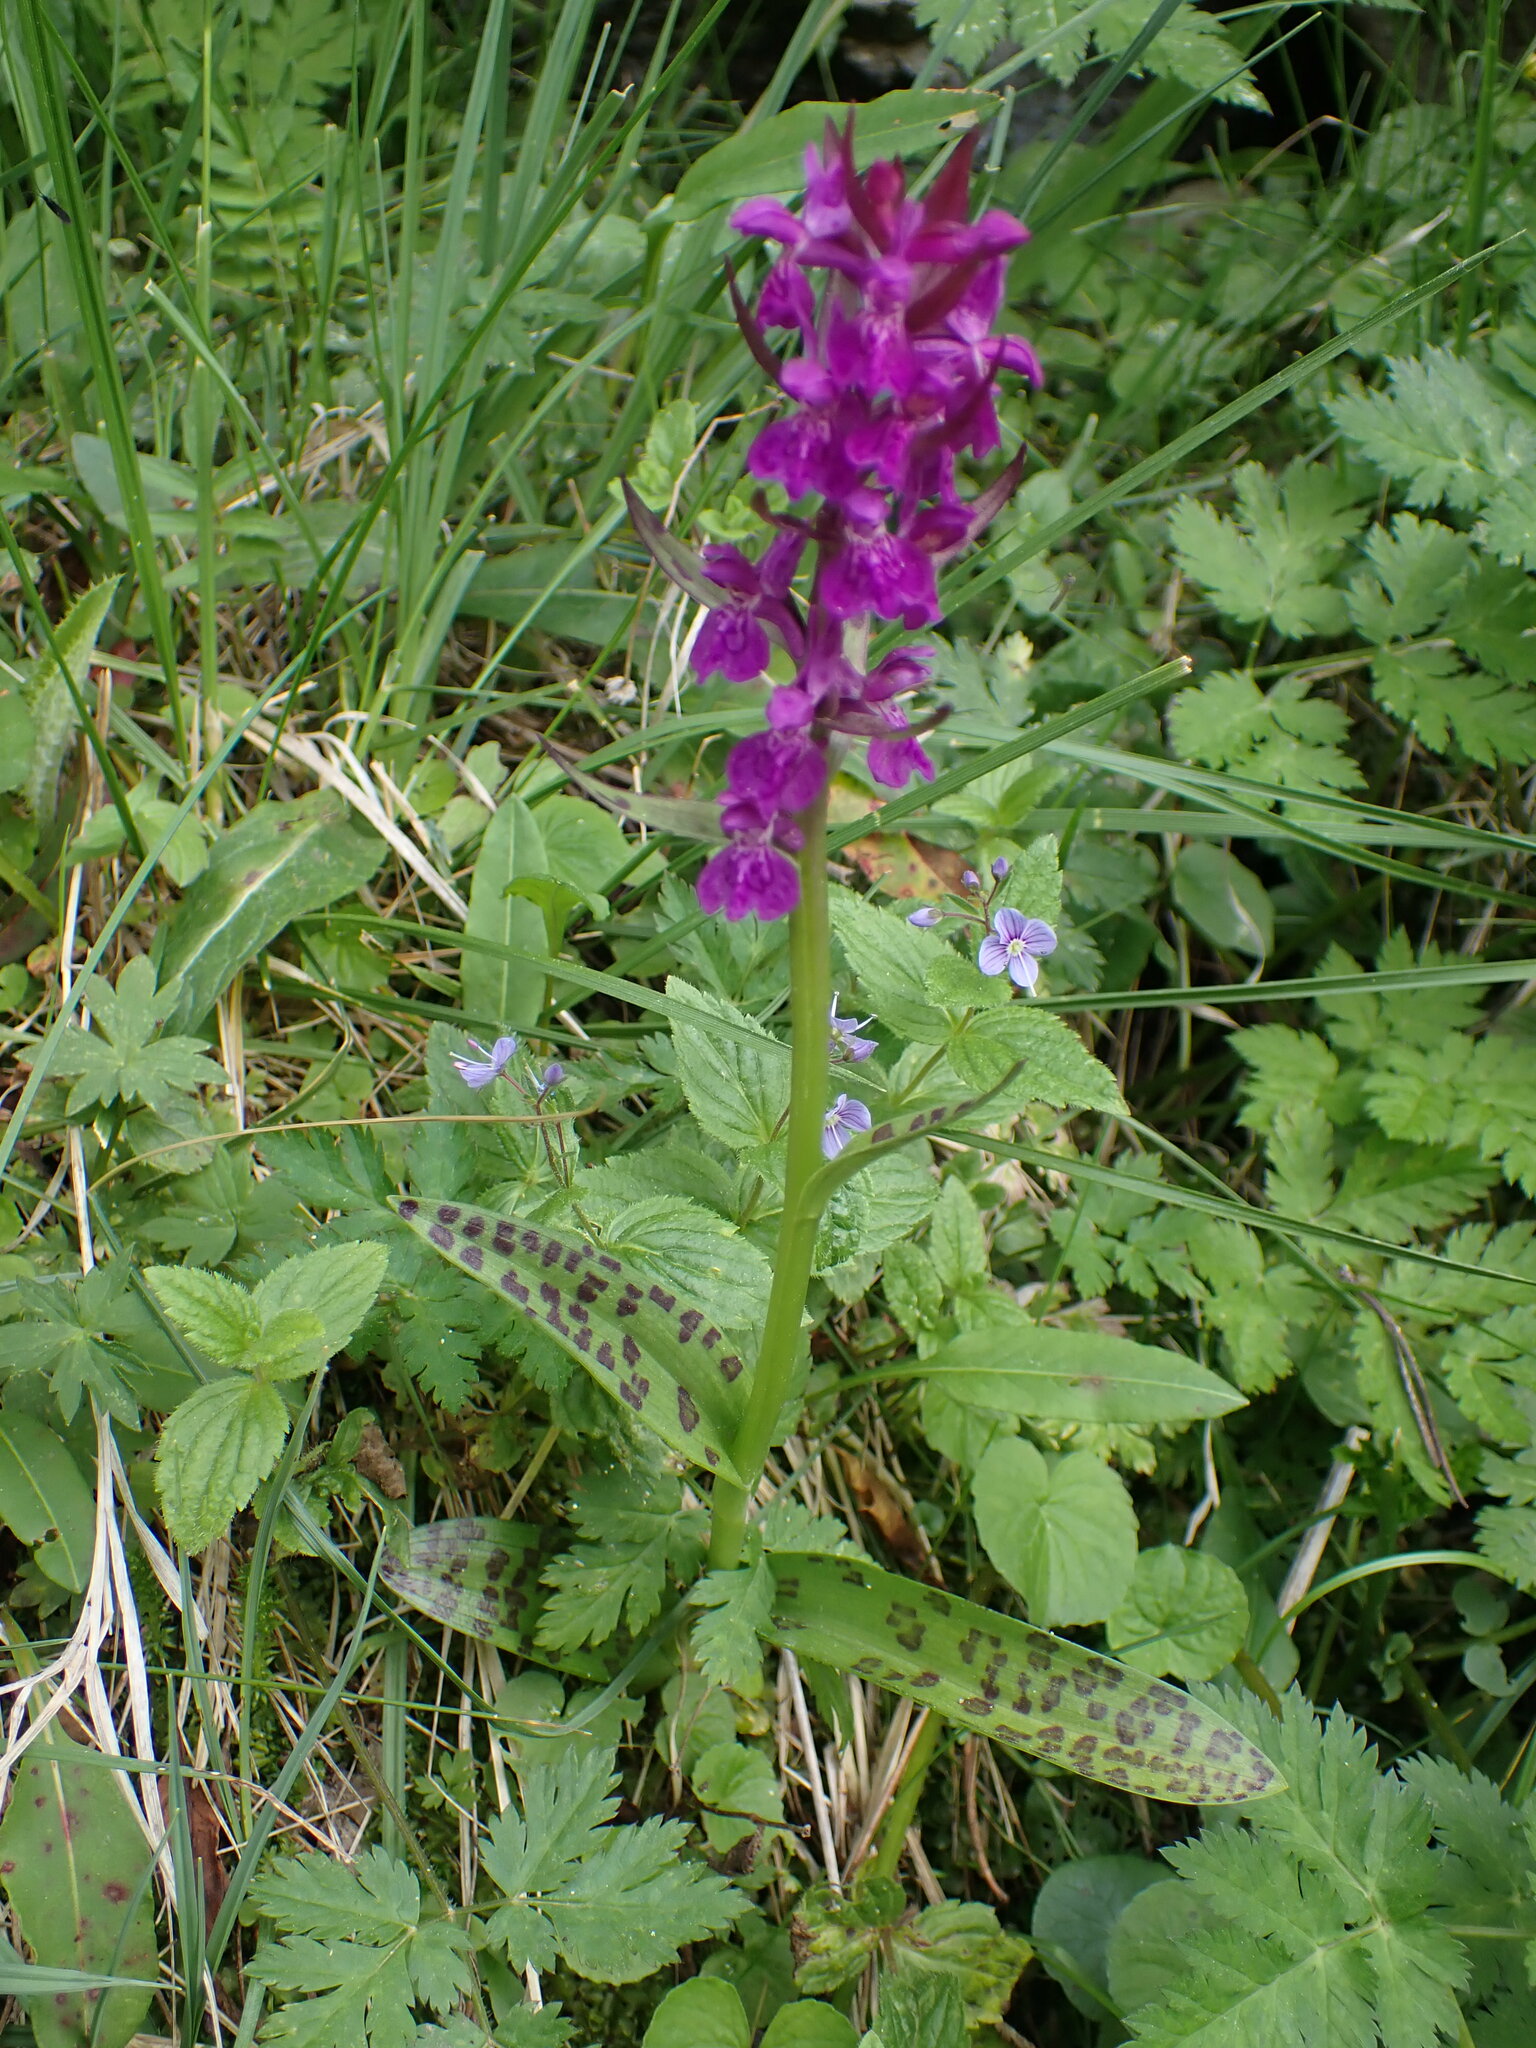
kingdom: Plantae
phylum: Tracheophyta
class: Liliopsida
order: Asparagales
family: Orchidaceae
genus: Dactylorhiza
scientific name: Dactylorhiza majalis
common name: Marsh orchid
